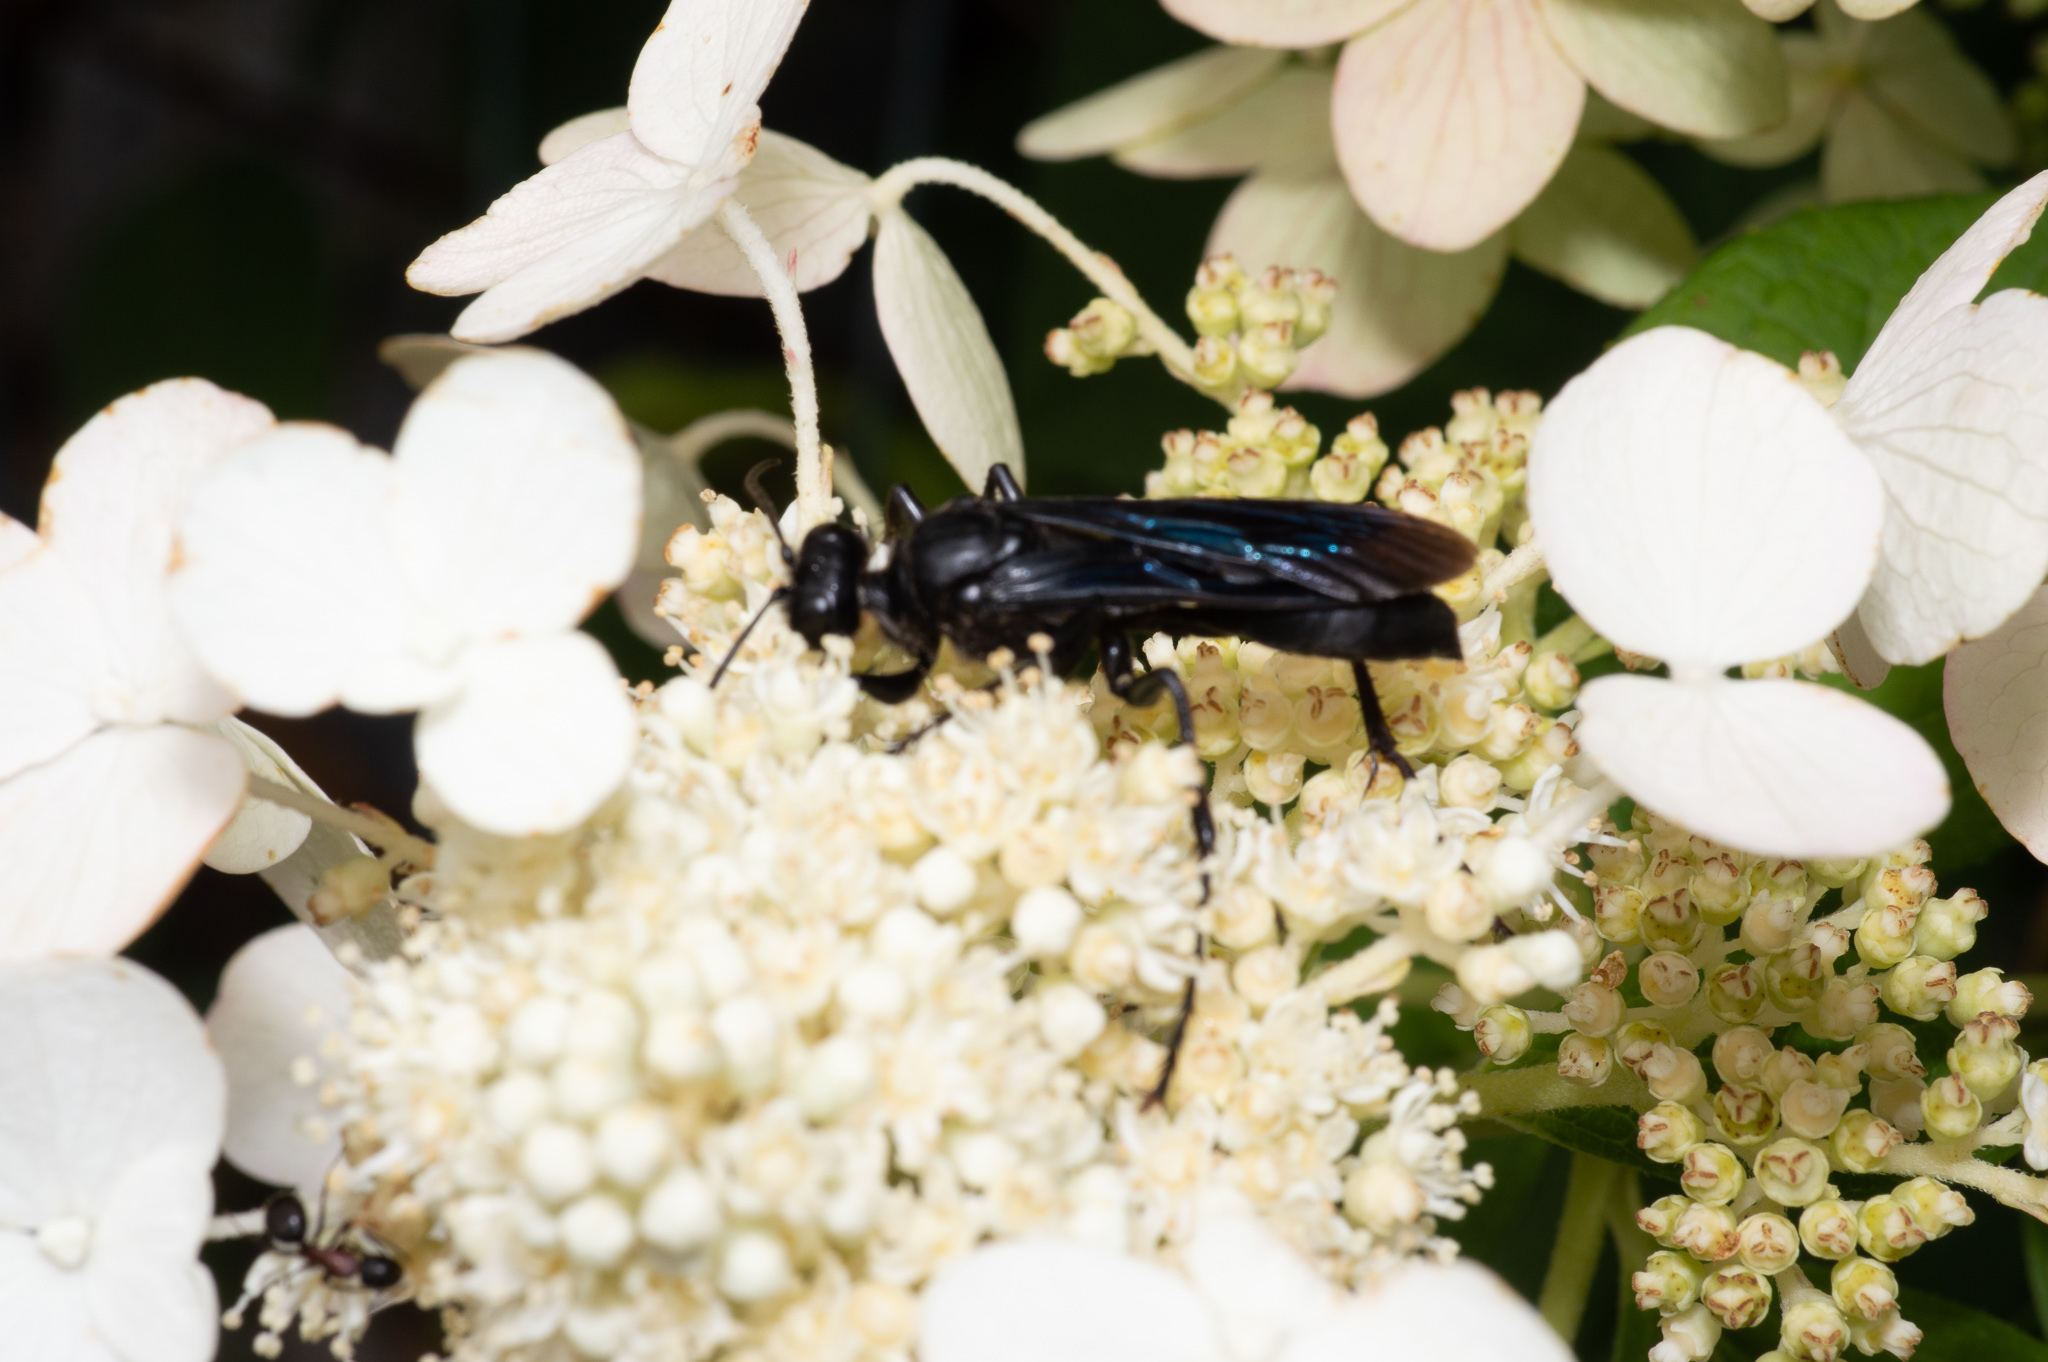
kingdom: Animalia
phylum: Arthropoda
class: Insecta
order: Hymenoptera
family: Sphecidae
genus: Sphex
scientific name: Sphex pensylvanicus
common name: Great black digger wasp
